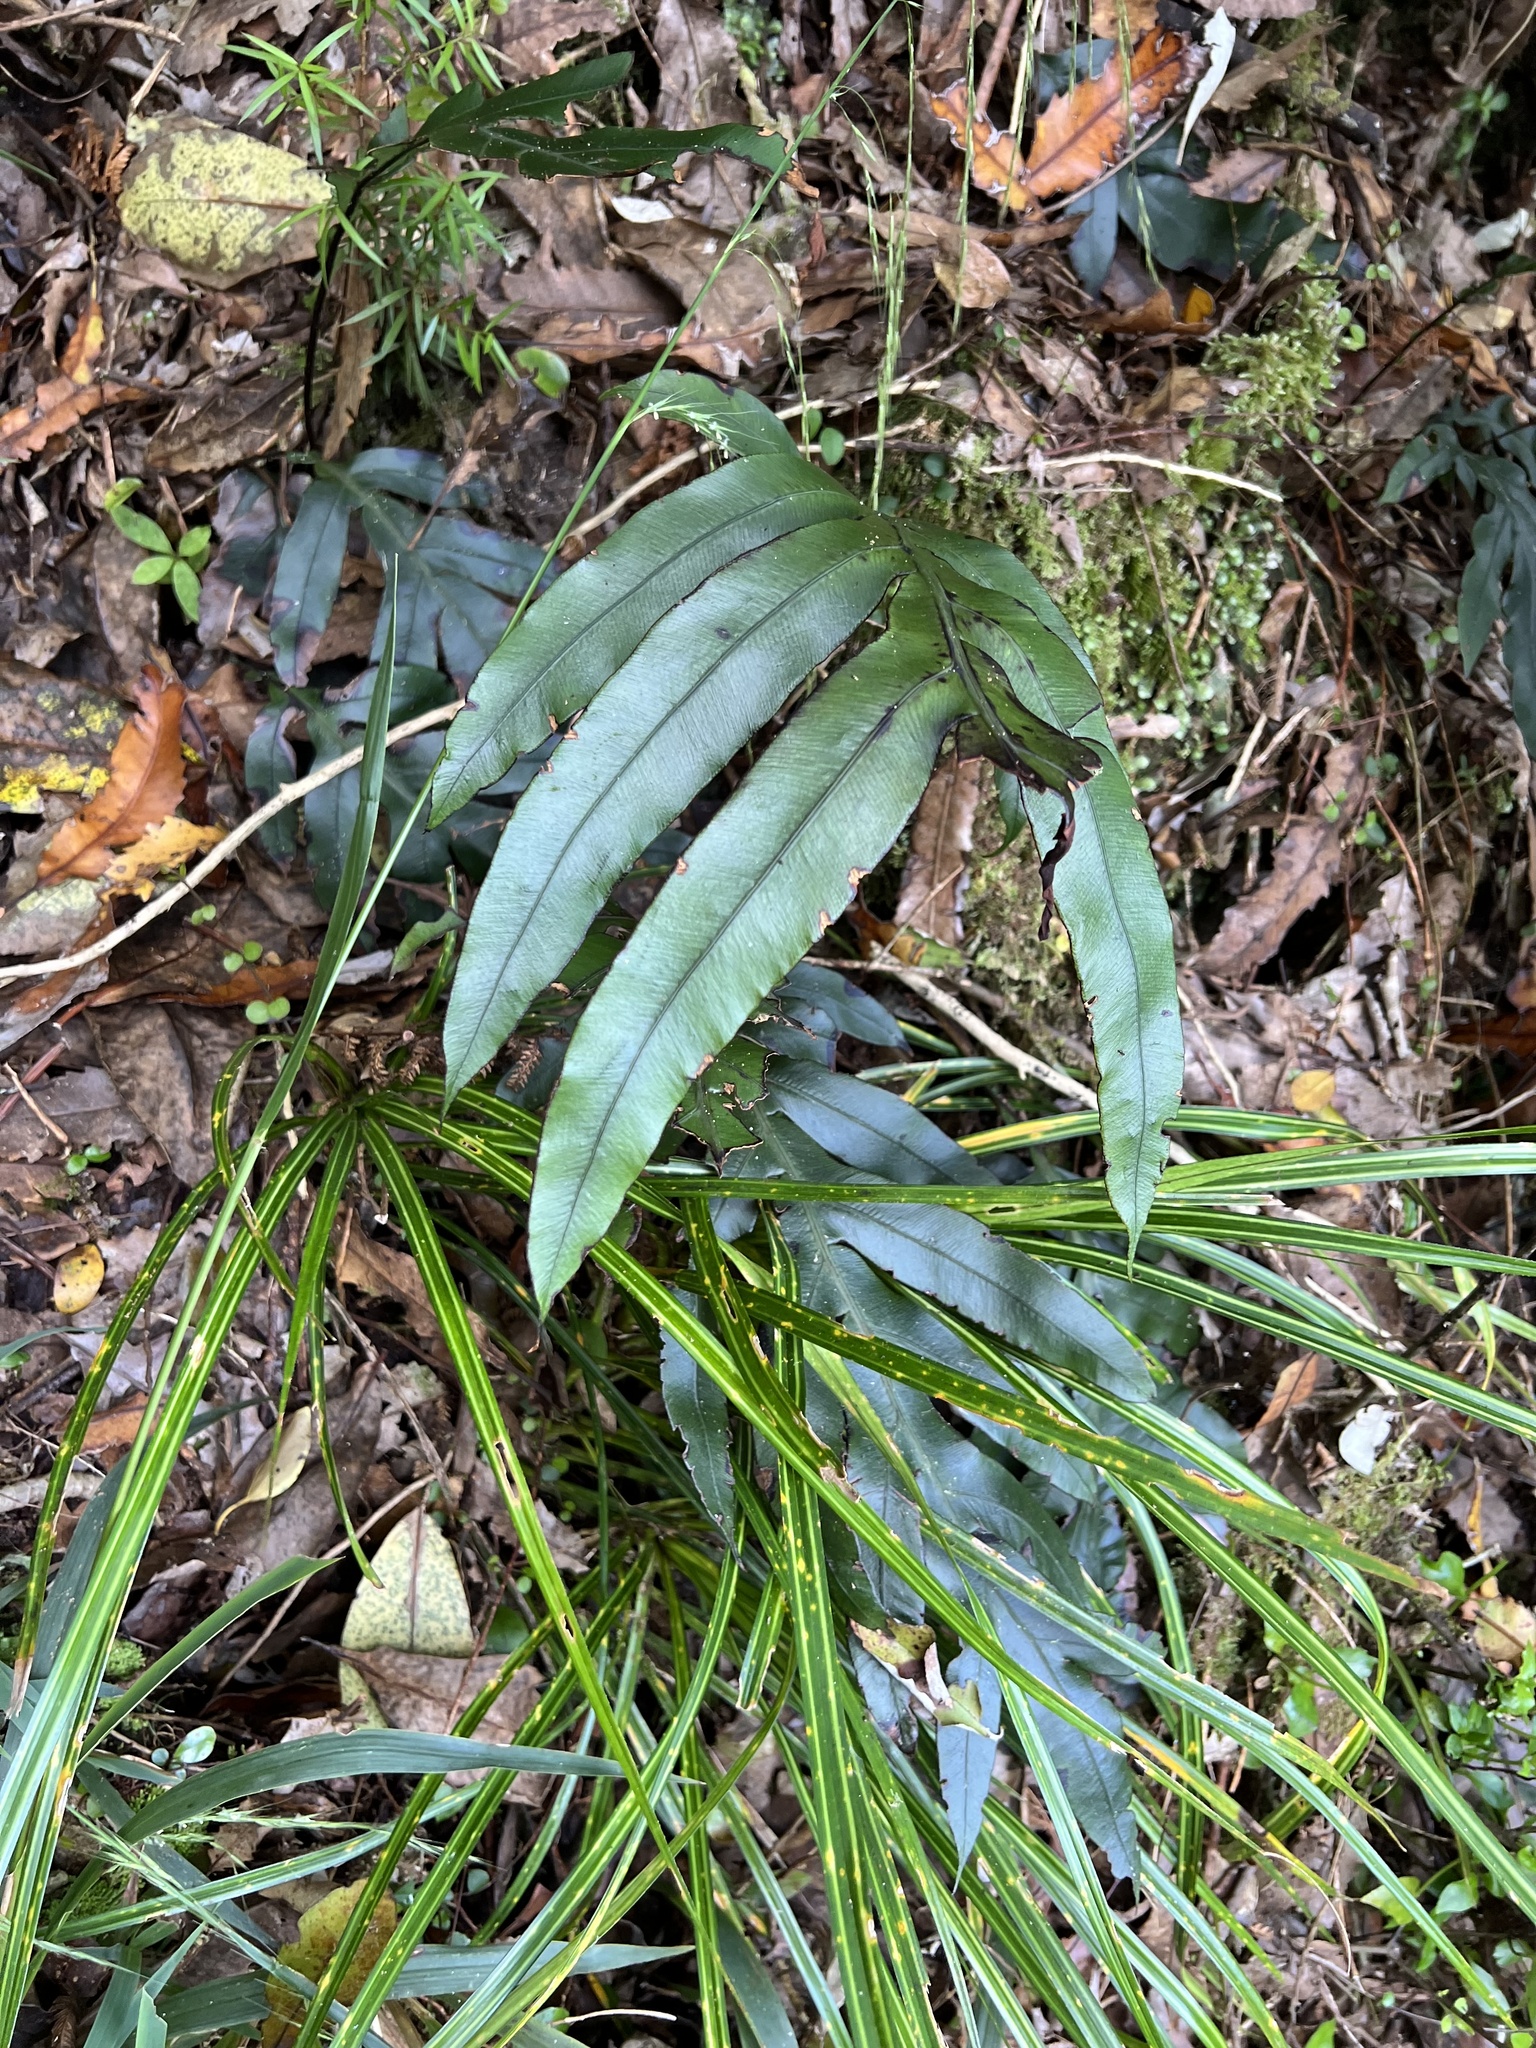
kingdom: Plantae
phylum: Tracheophyta
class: Polypodiopsida
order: Polypodiales
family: Blechnaceae
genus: Austroblechnum
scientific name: Austroblechnum colensoi
